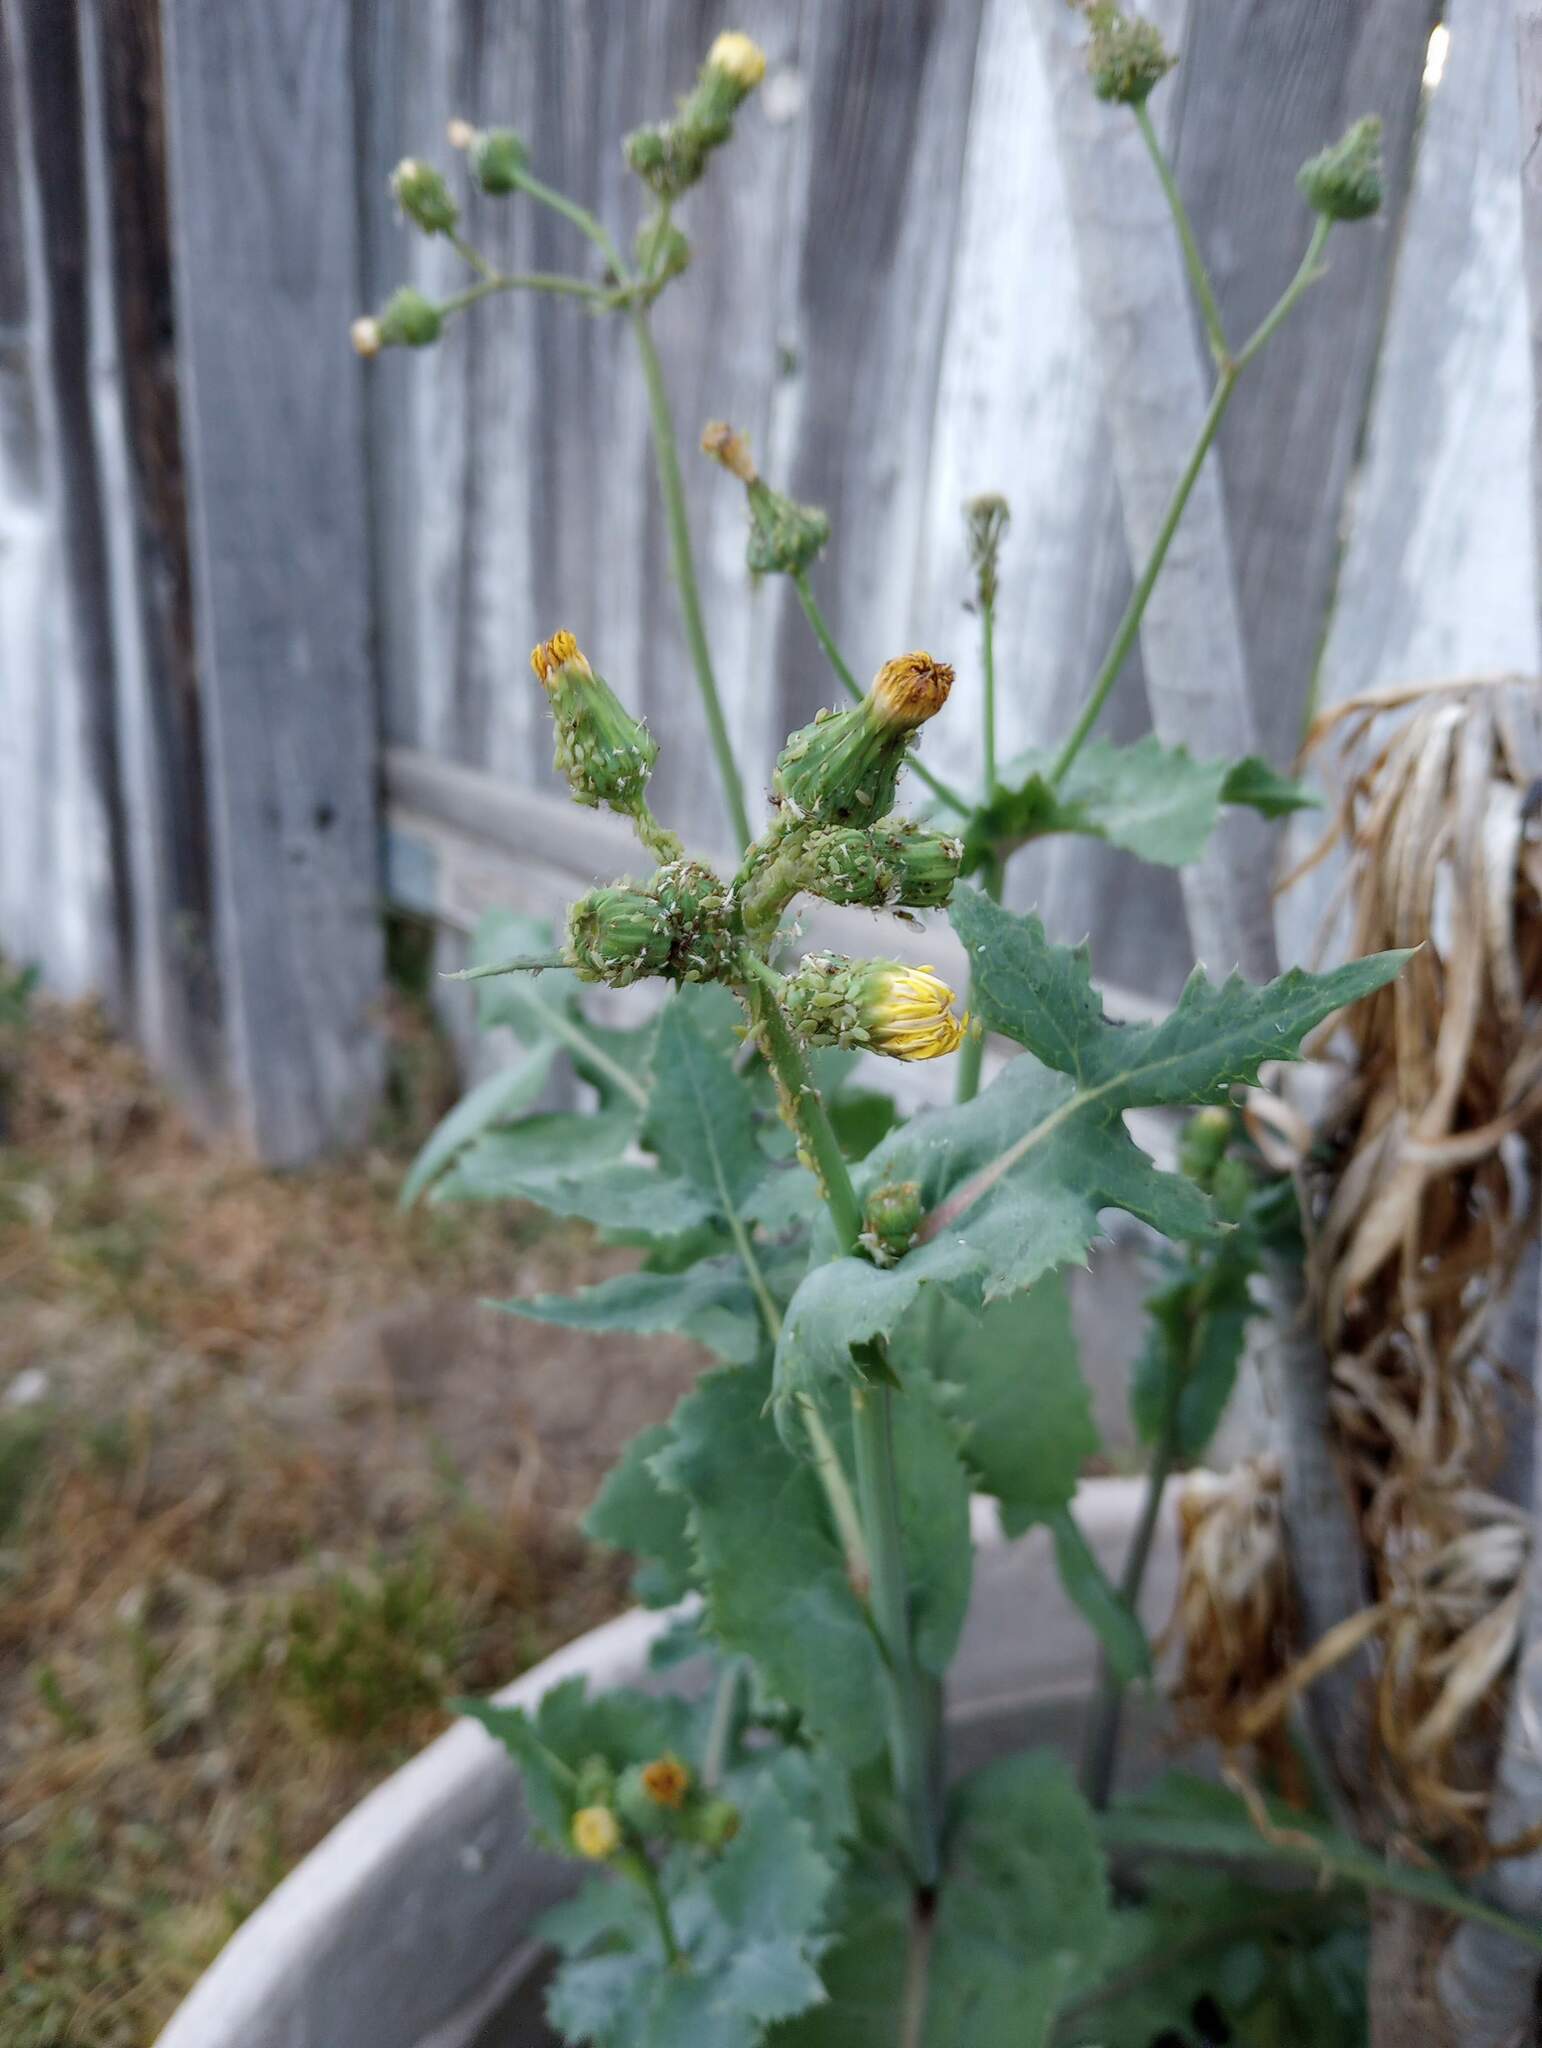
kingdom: Plantae
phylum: Tracheophyta
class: Magnoliopsida
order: Asterales
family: Asteraceae
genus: Sonchus
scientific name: Sonchus oleraceus
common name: Common sowthistle
